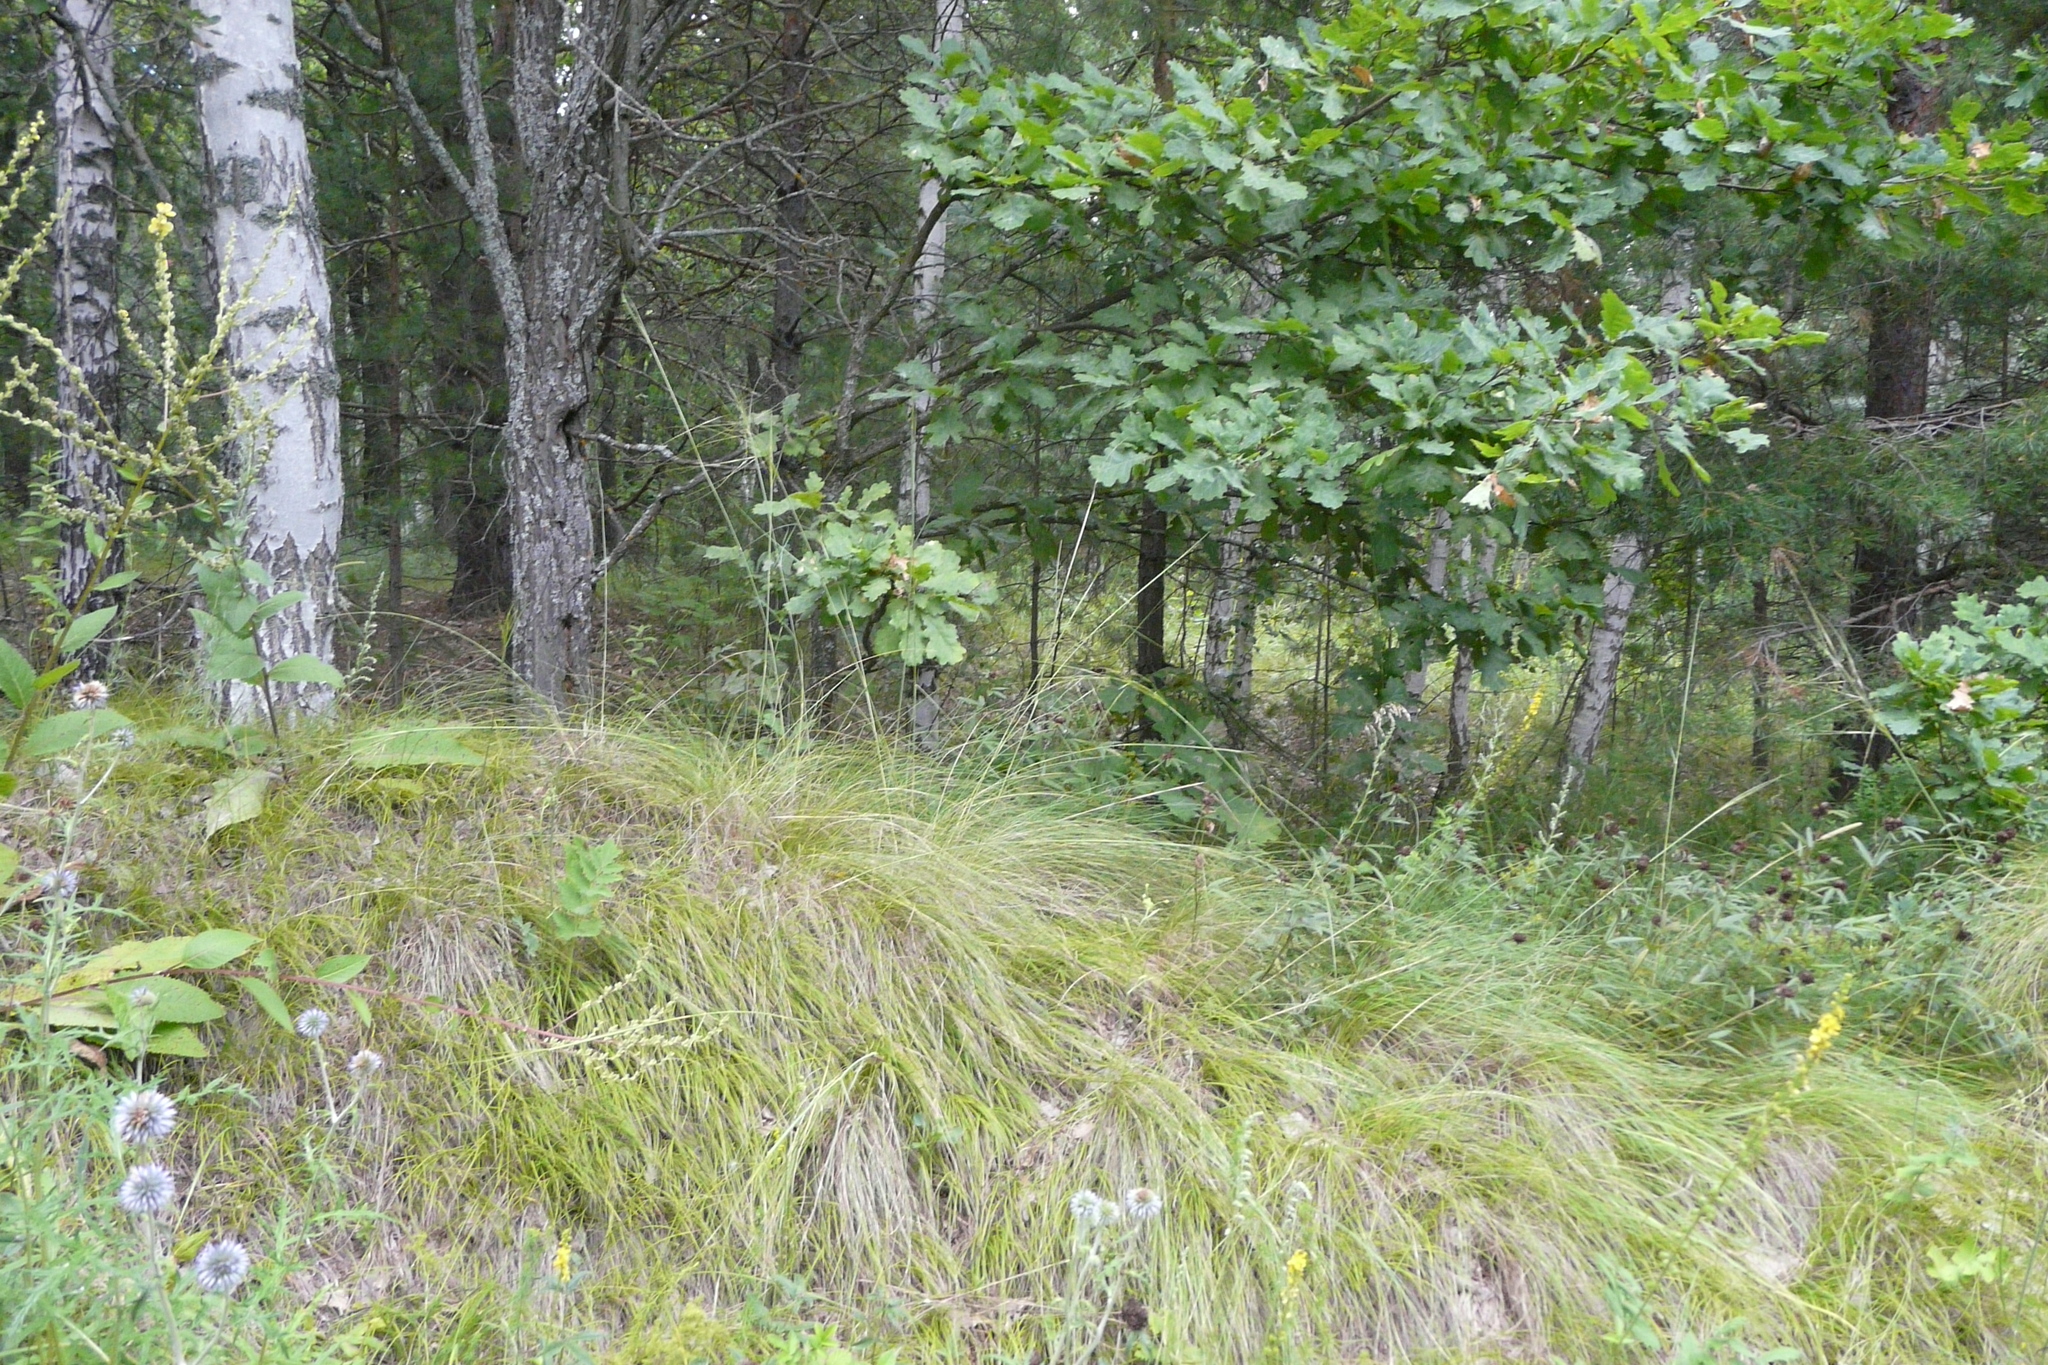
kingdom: Plantae
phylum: Tracheophyta
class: Liliopsida
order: Poales
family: Poaceae
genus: Stipa
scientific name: Stipa capillata
